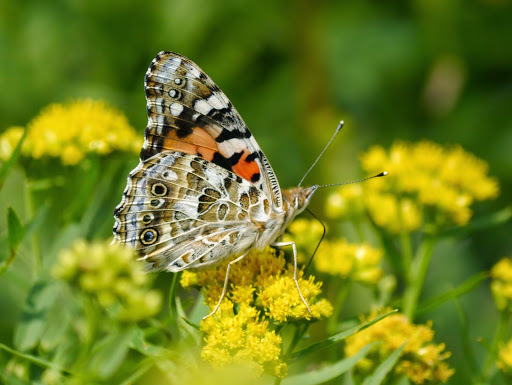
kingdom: Animalia
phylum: Arthropoda
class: Insecta
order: Lepidoptera
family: Nymphalidae
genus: Vanessa
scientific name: Vanessa cardui
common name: Painted lady
